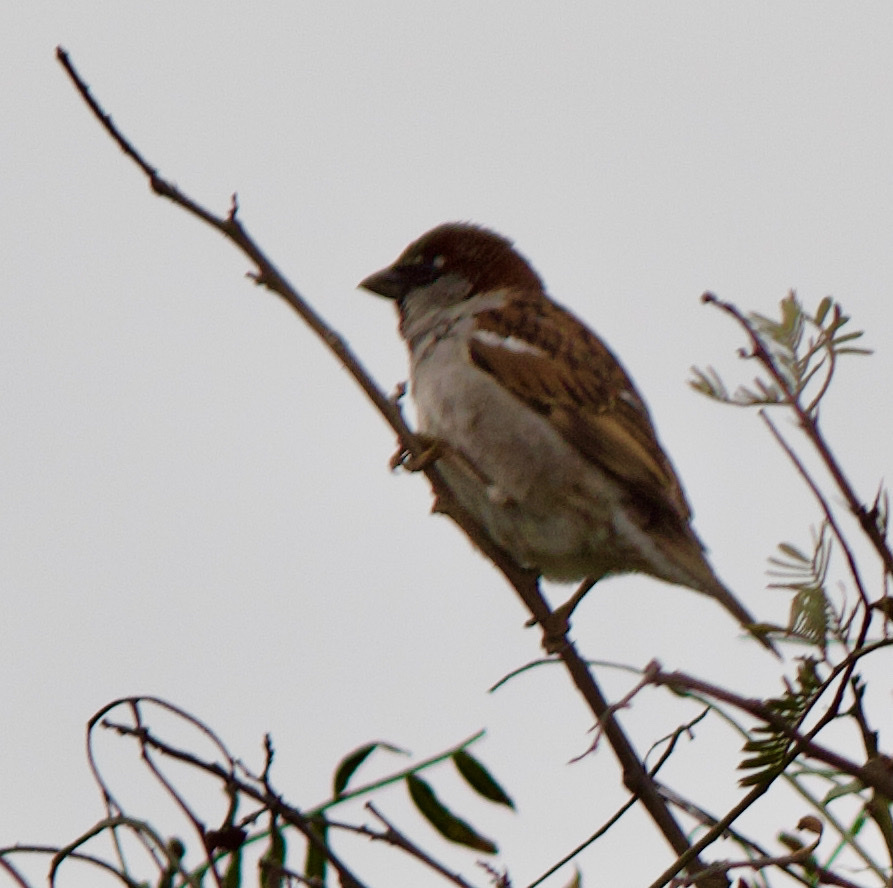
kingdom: Animalia
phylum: Chordata
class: Aves
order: Passeriformes
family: Passeridae
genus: Passer
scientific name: Passer domesticus
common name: House sparrow
